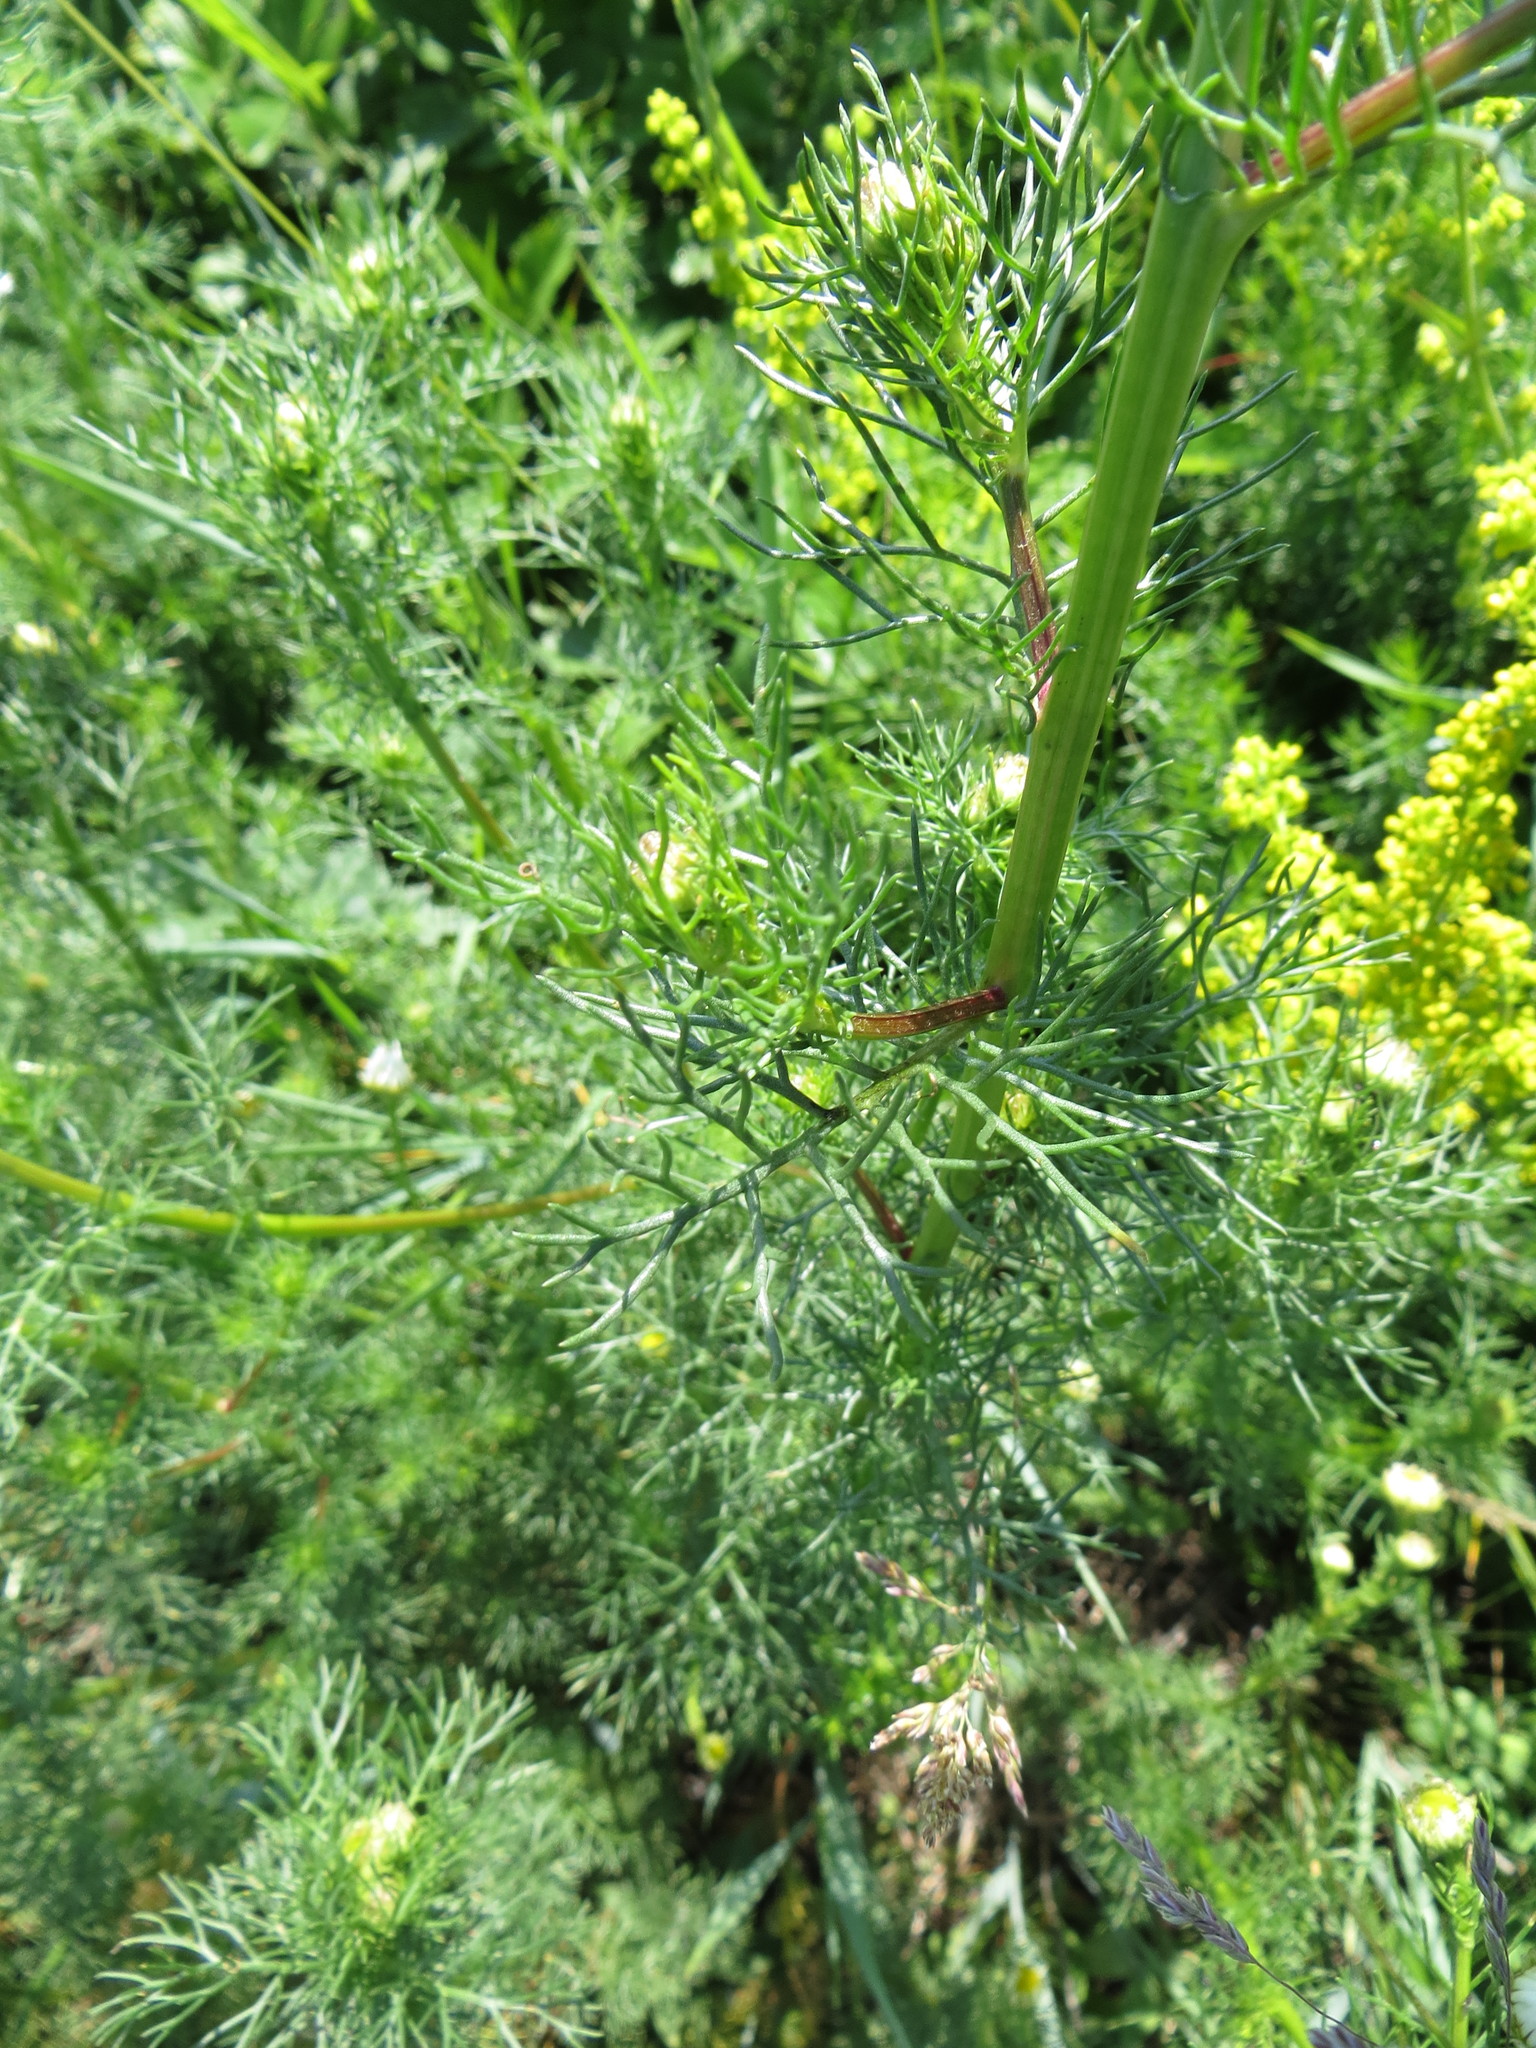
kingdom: Plantae
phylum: Tracheophyta
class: Magnoliopsida
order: Asterales
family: Asteraceae
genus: Tripleurospermum
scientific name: Tripleurospermum inodorum
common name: Scentless mayweed
